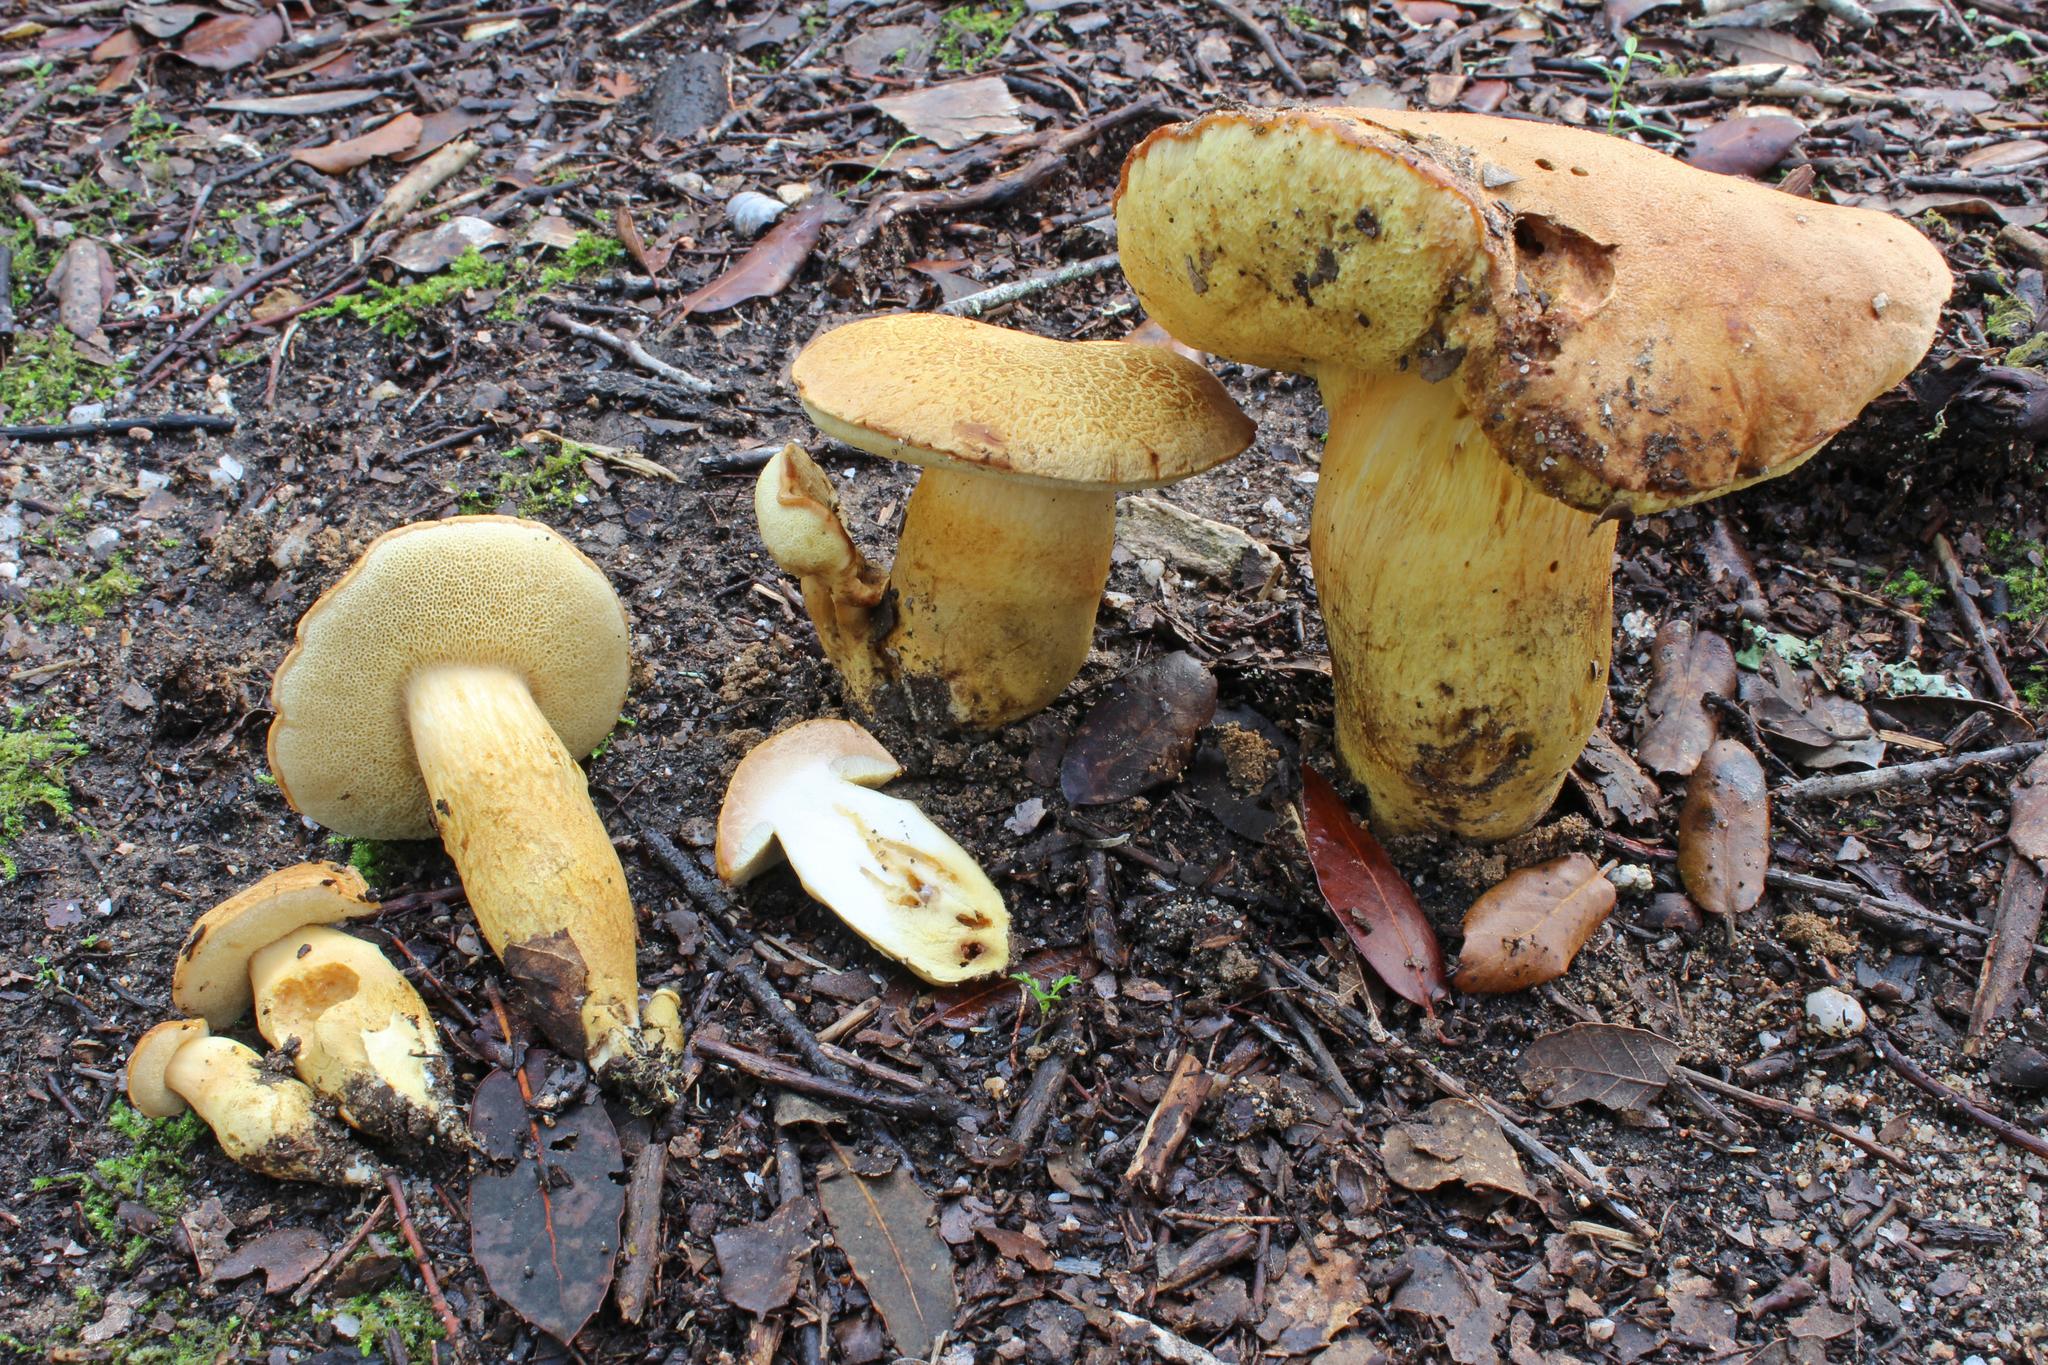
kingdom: Fungi
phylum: Basidiomycota
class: Agaricomycetes
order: Boletales
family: Boletaceae
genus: Aureoboletus
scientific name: Aureoboletus moravicus
